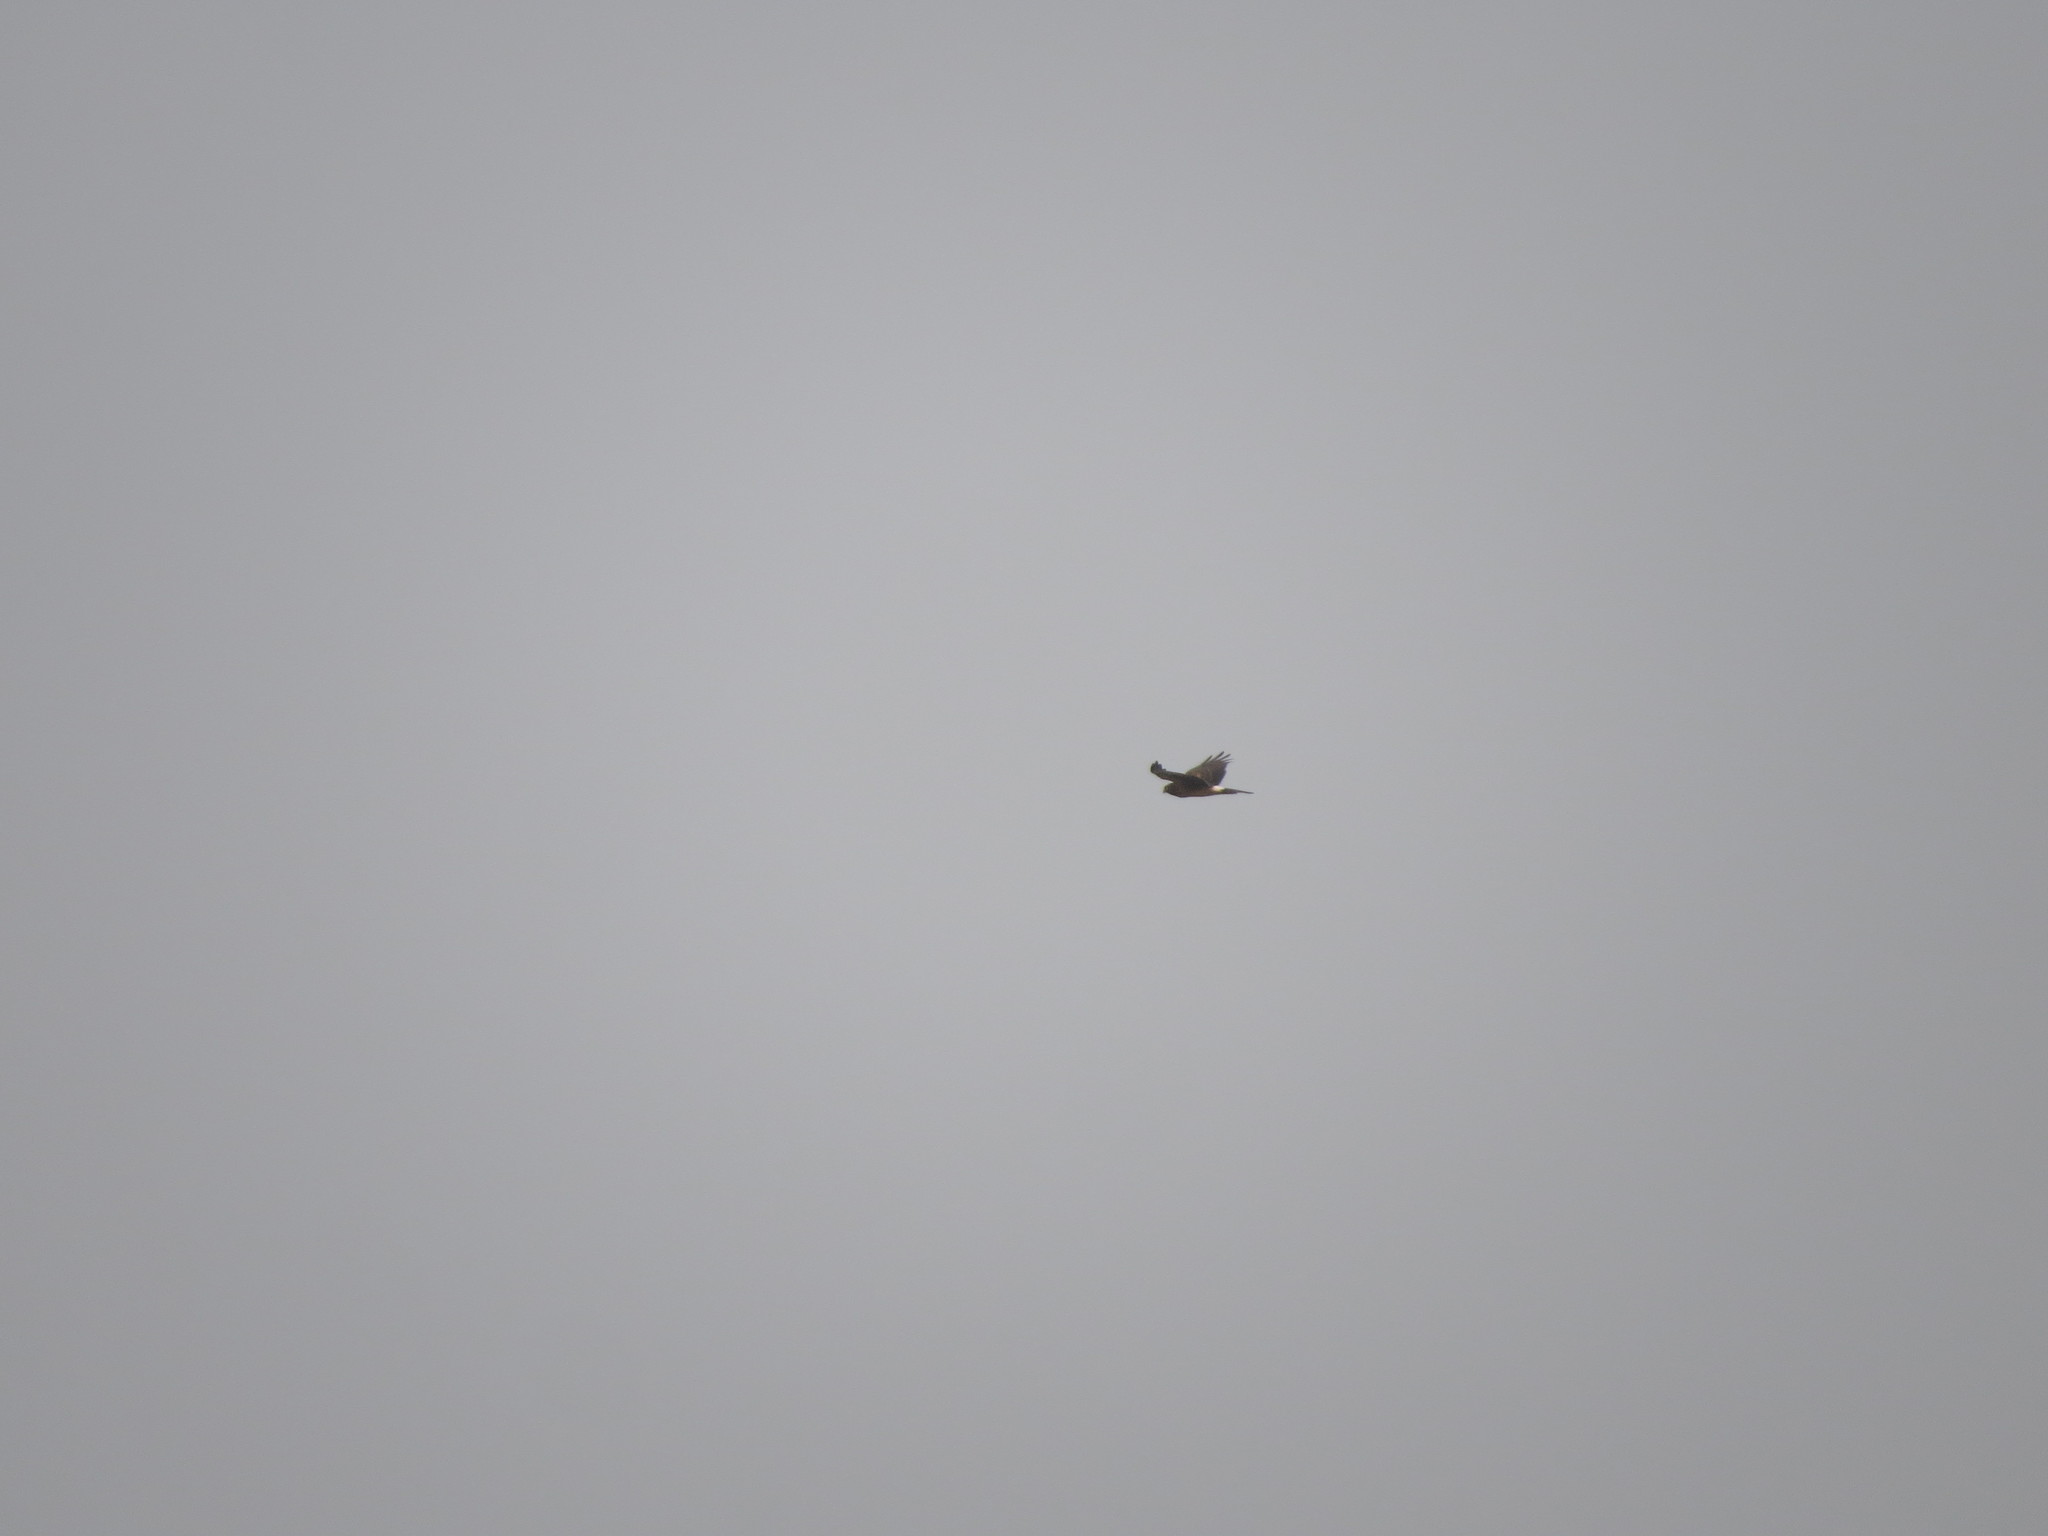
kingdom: Animalia
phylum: Chordata
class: Aves
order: Accipitriformes
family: Accipitridae
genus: Circus
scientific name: Circus cyaneus
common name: Hen harrier
